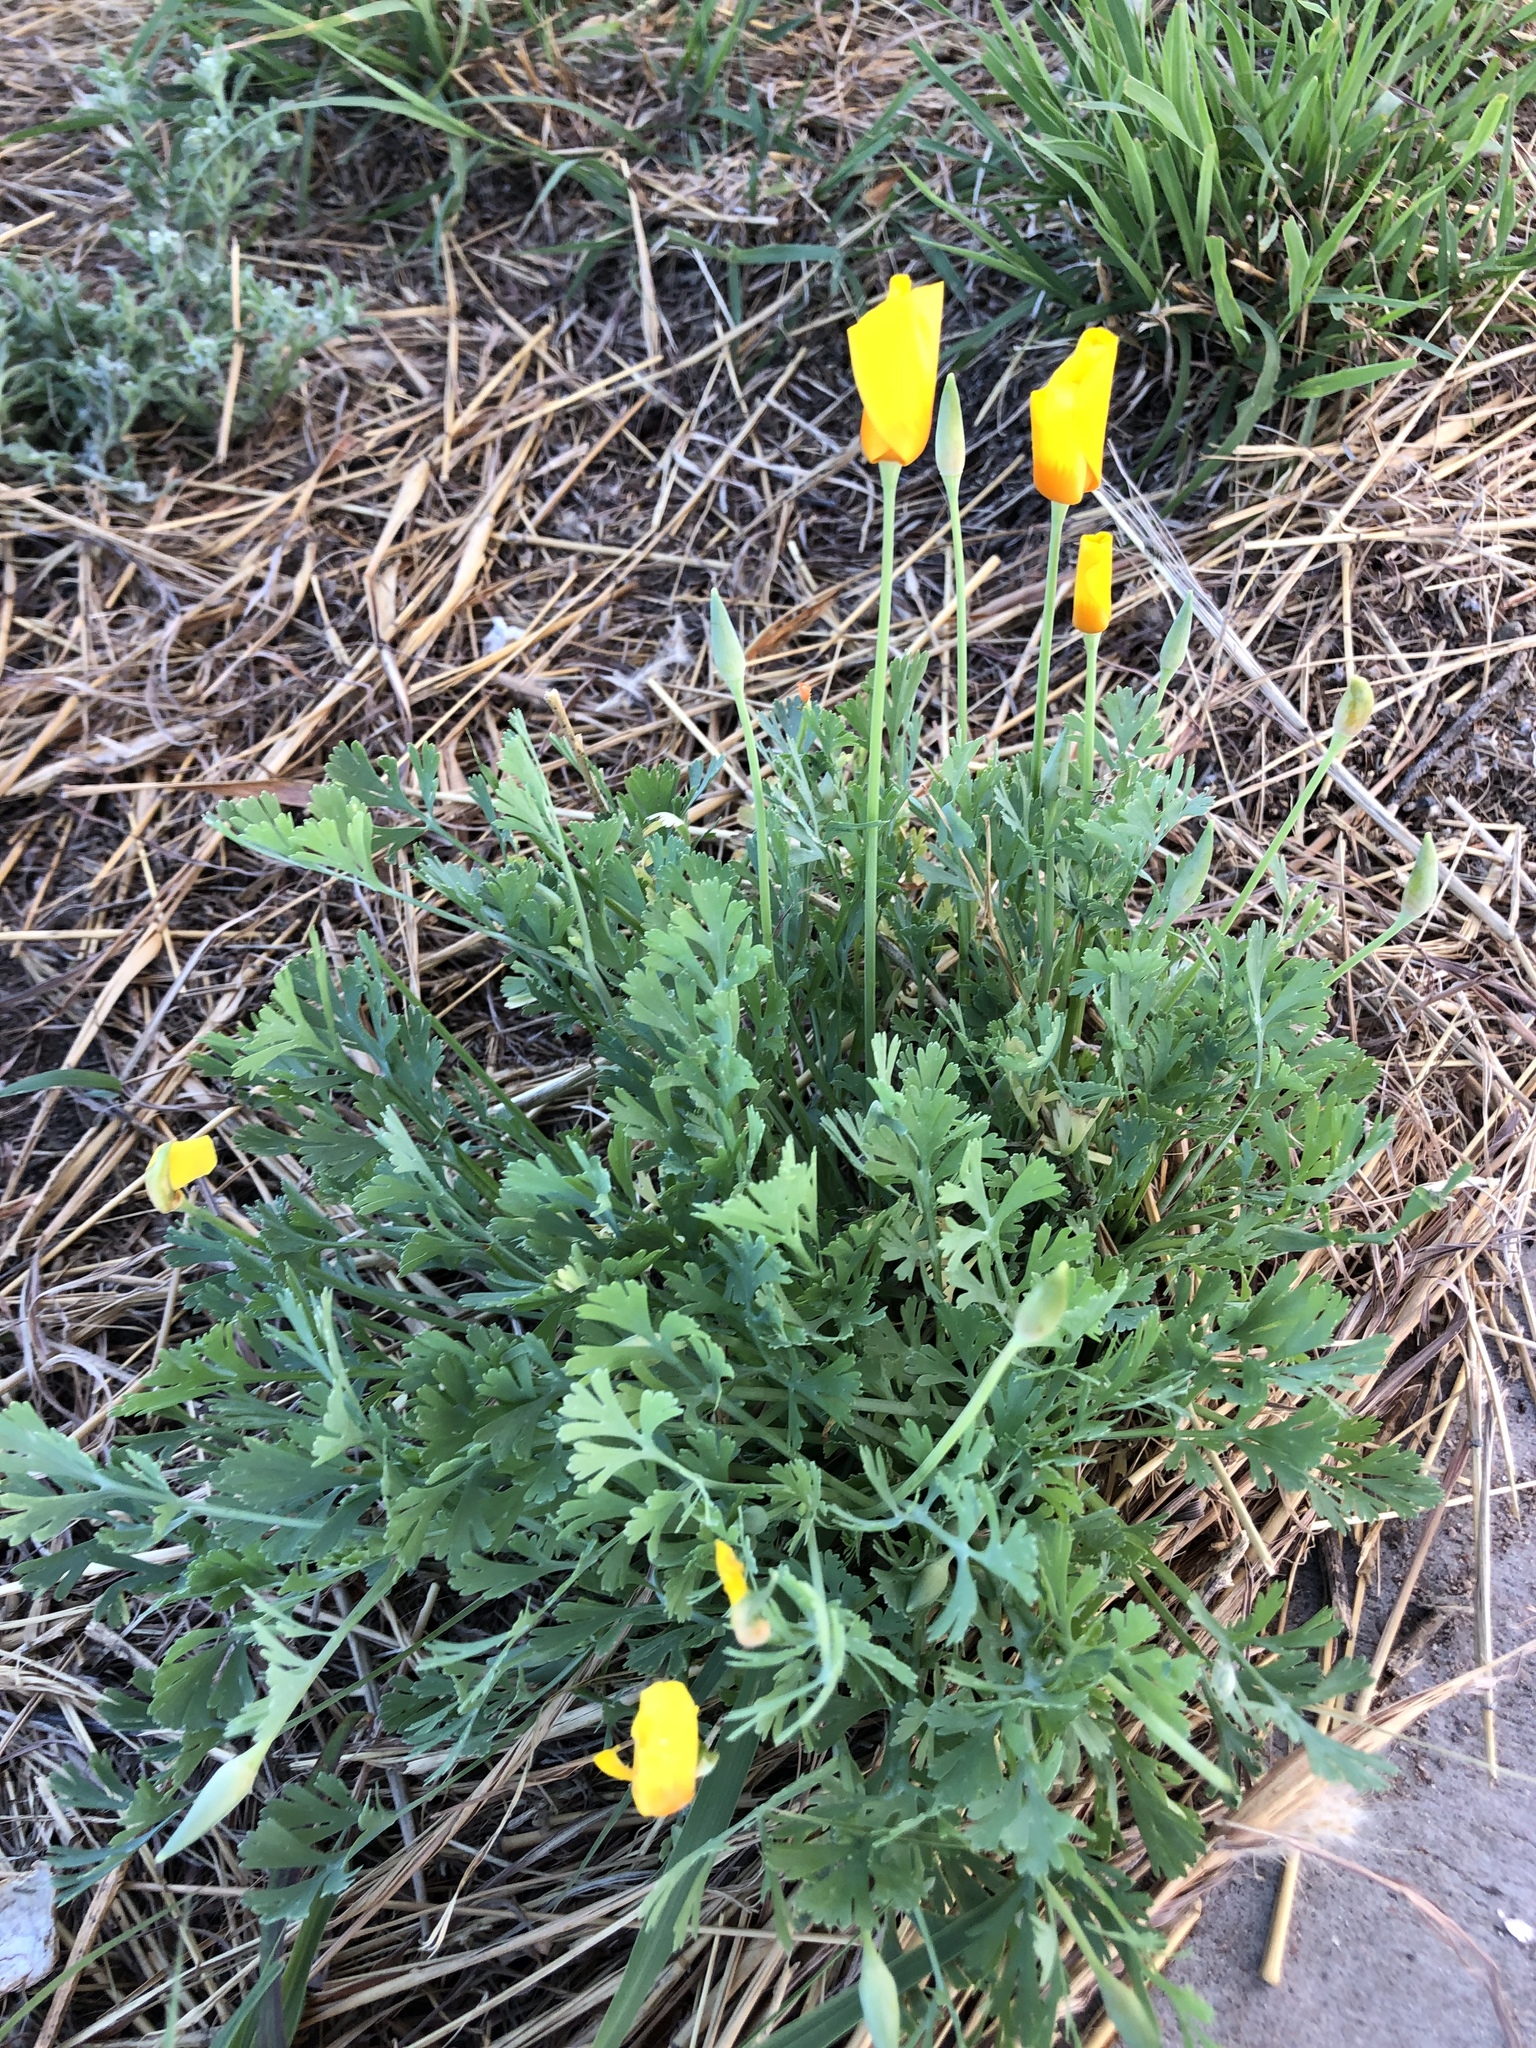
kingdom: Plantae
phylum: Tracheophyta
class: Magnoliopsida
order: Ranunculales
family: Papaveraceae
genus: Eschscholzia
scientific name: Eschscholzia californica
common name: California poppy
